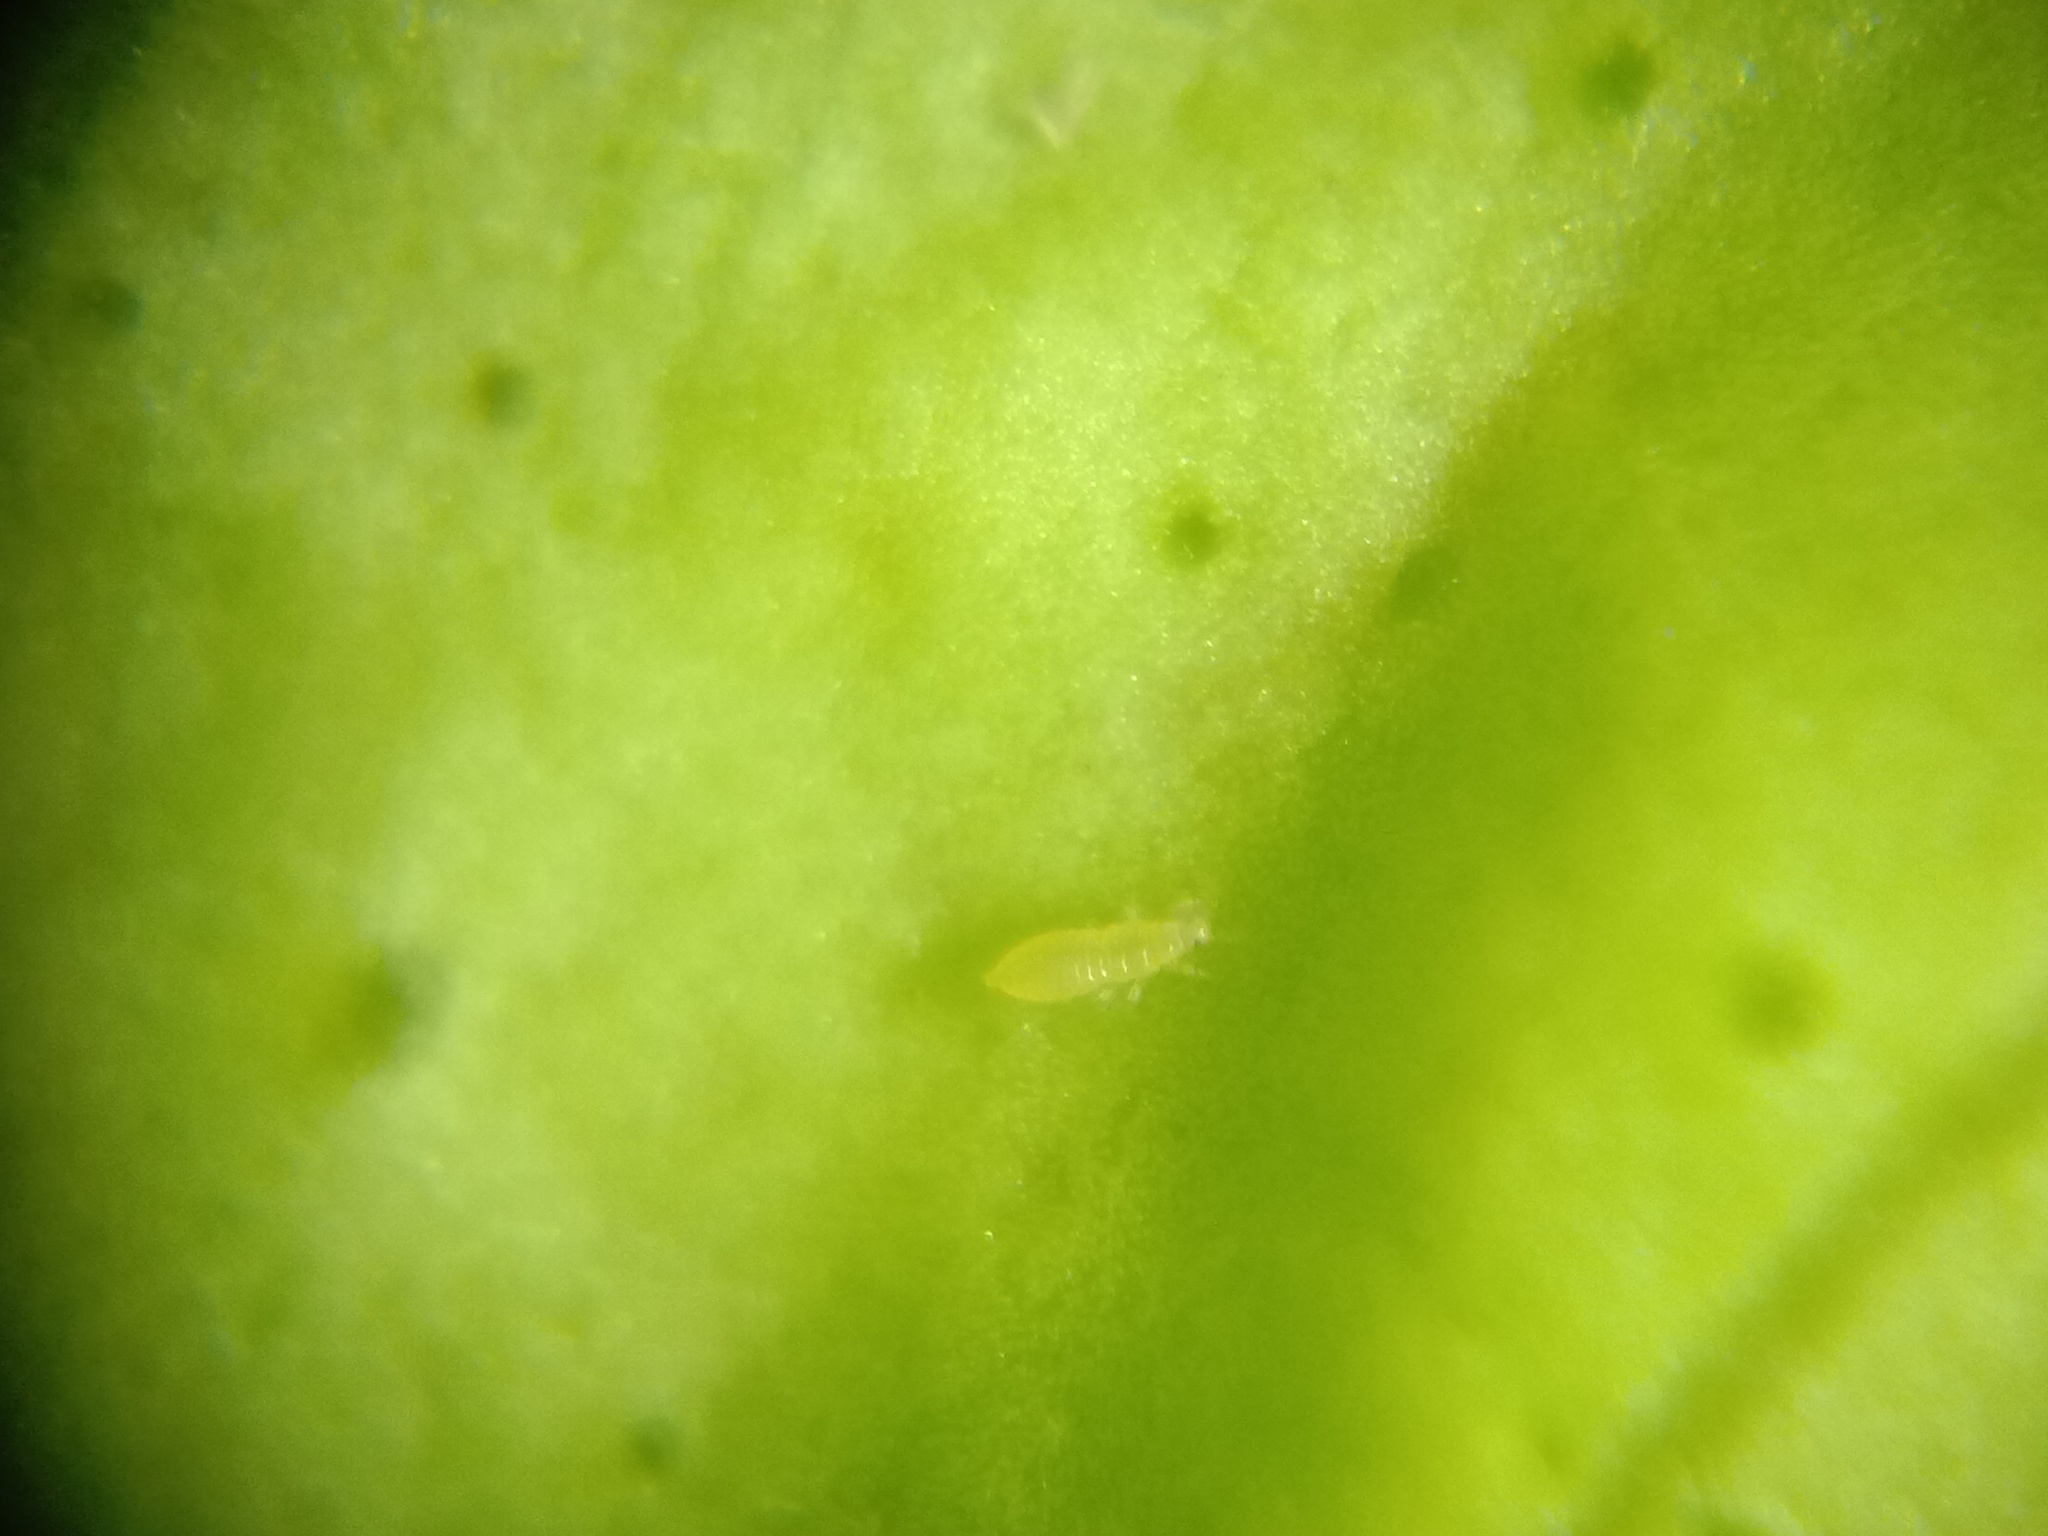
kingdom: Animalia
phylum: Arthropoda
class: Insecta
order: Thysanoptera
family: Thripidae
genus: Scirtothrips
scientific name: Scirtothrips dorsalis
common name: Thrips
